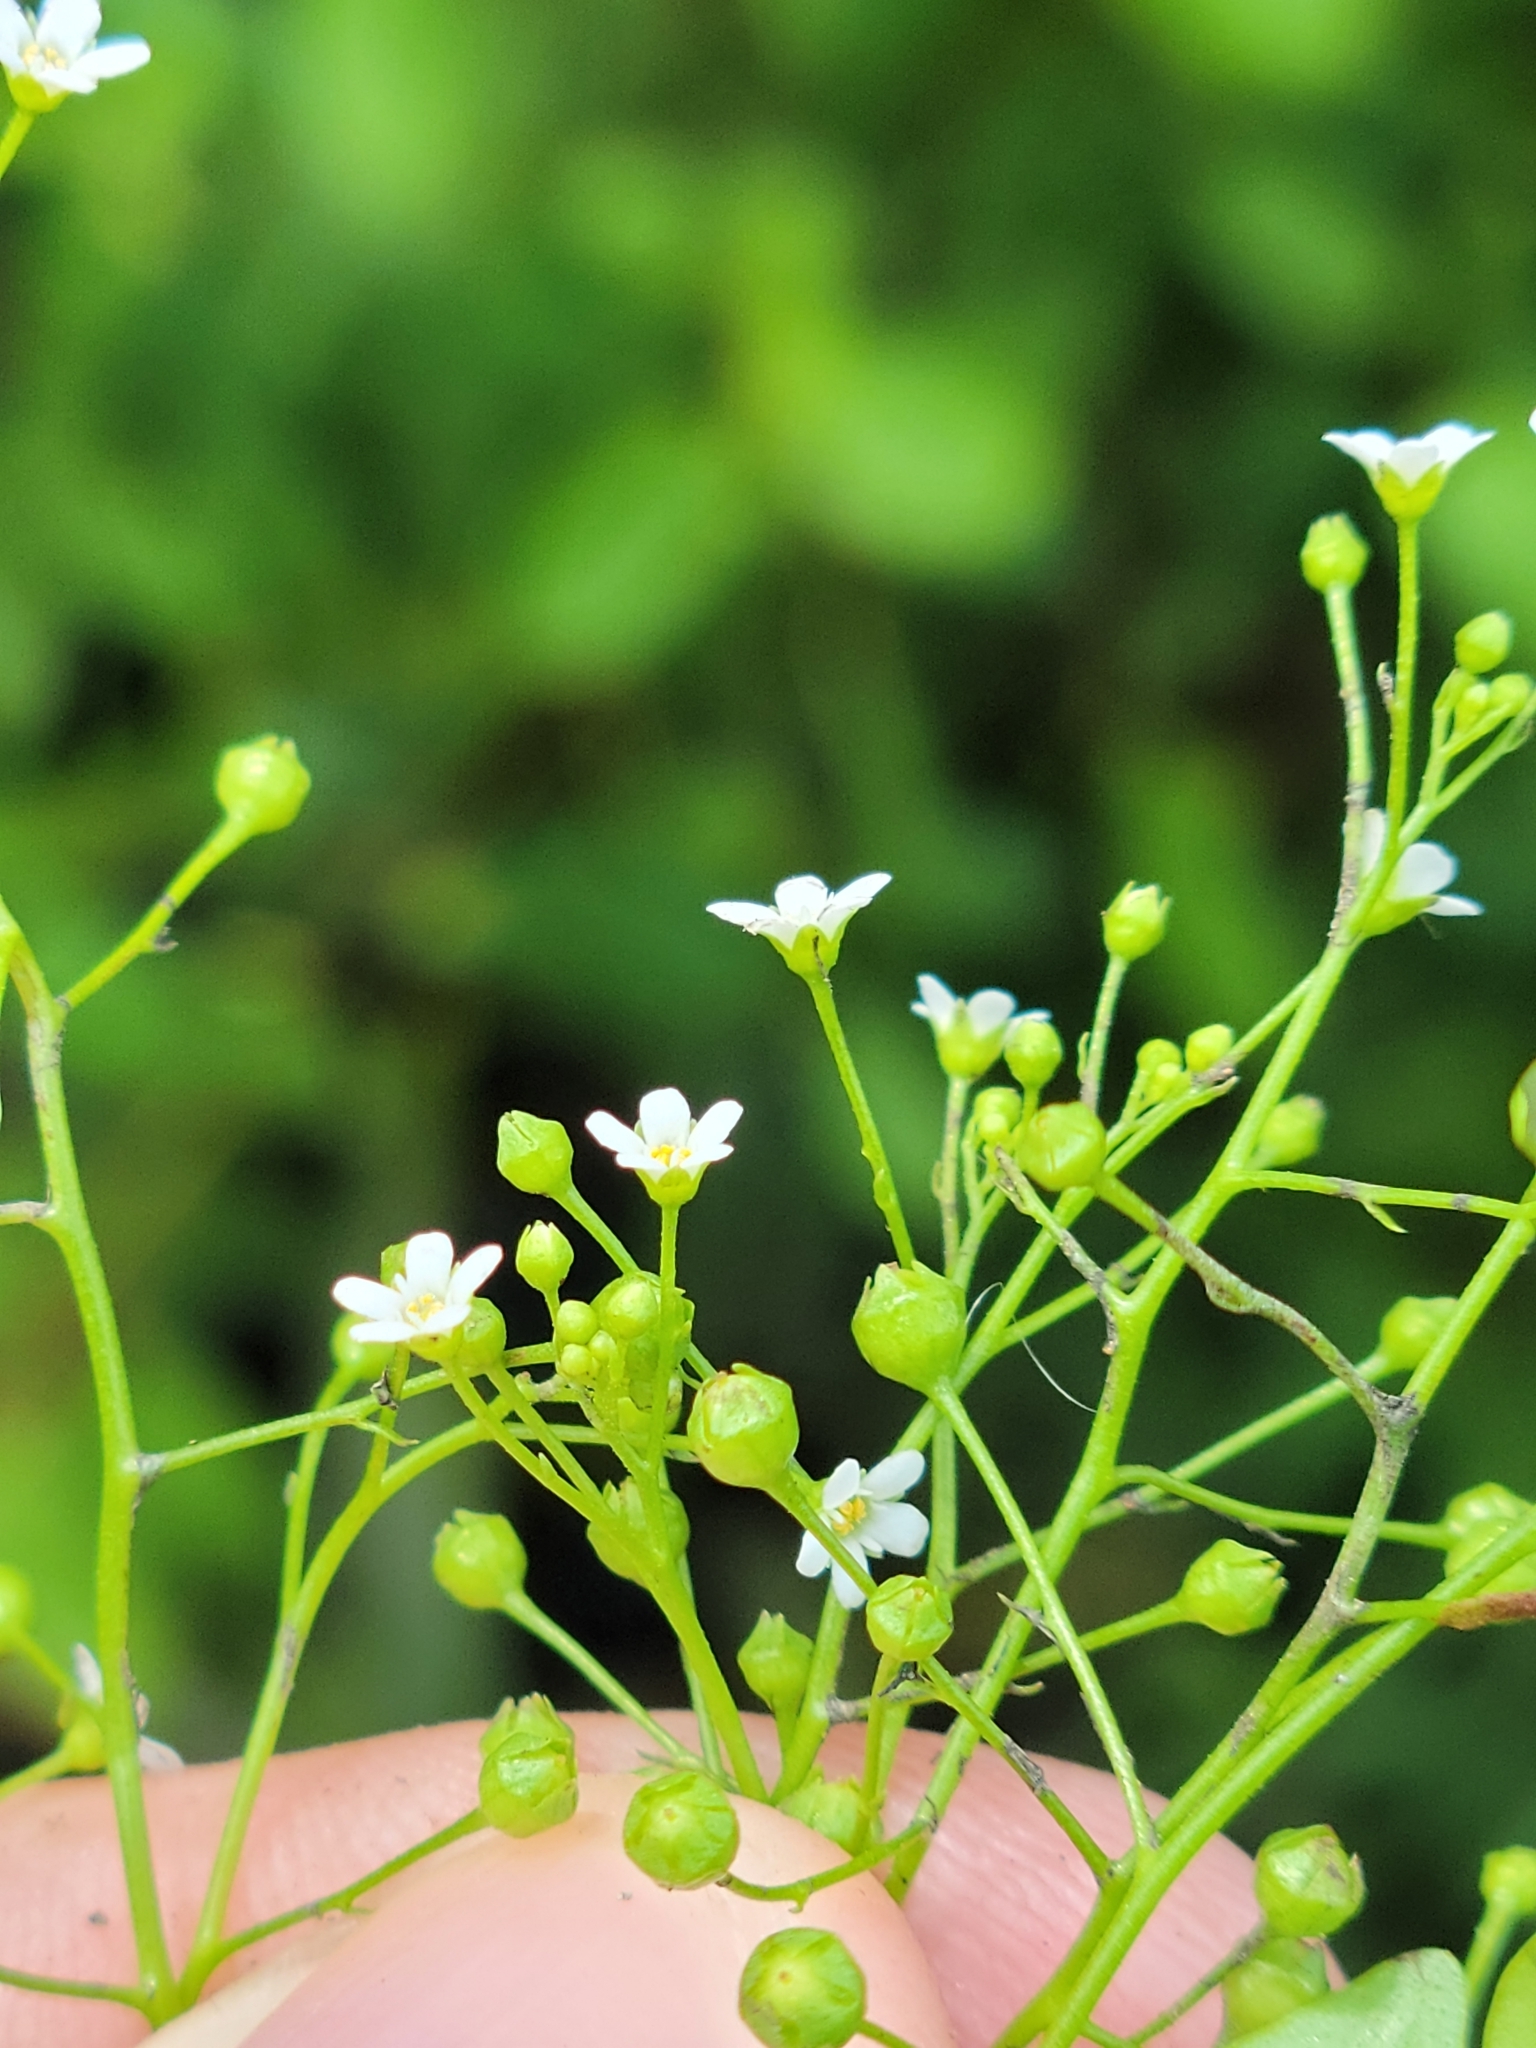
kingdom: Plantae
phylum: Tracheophyta
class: Magnoliopsida
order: Ericales
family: Primulaceae
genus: Samolus
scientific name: Samolus parviflorus
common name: False water pimpernel
